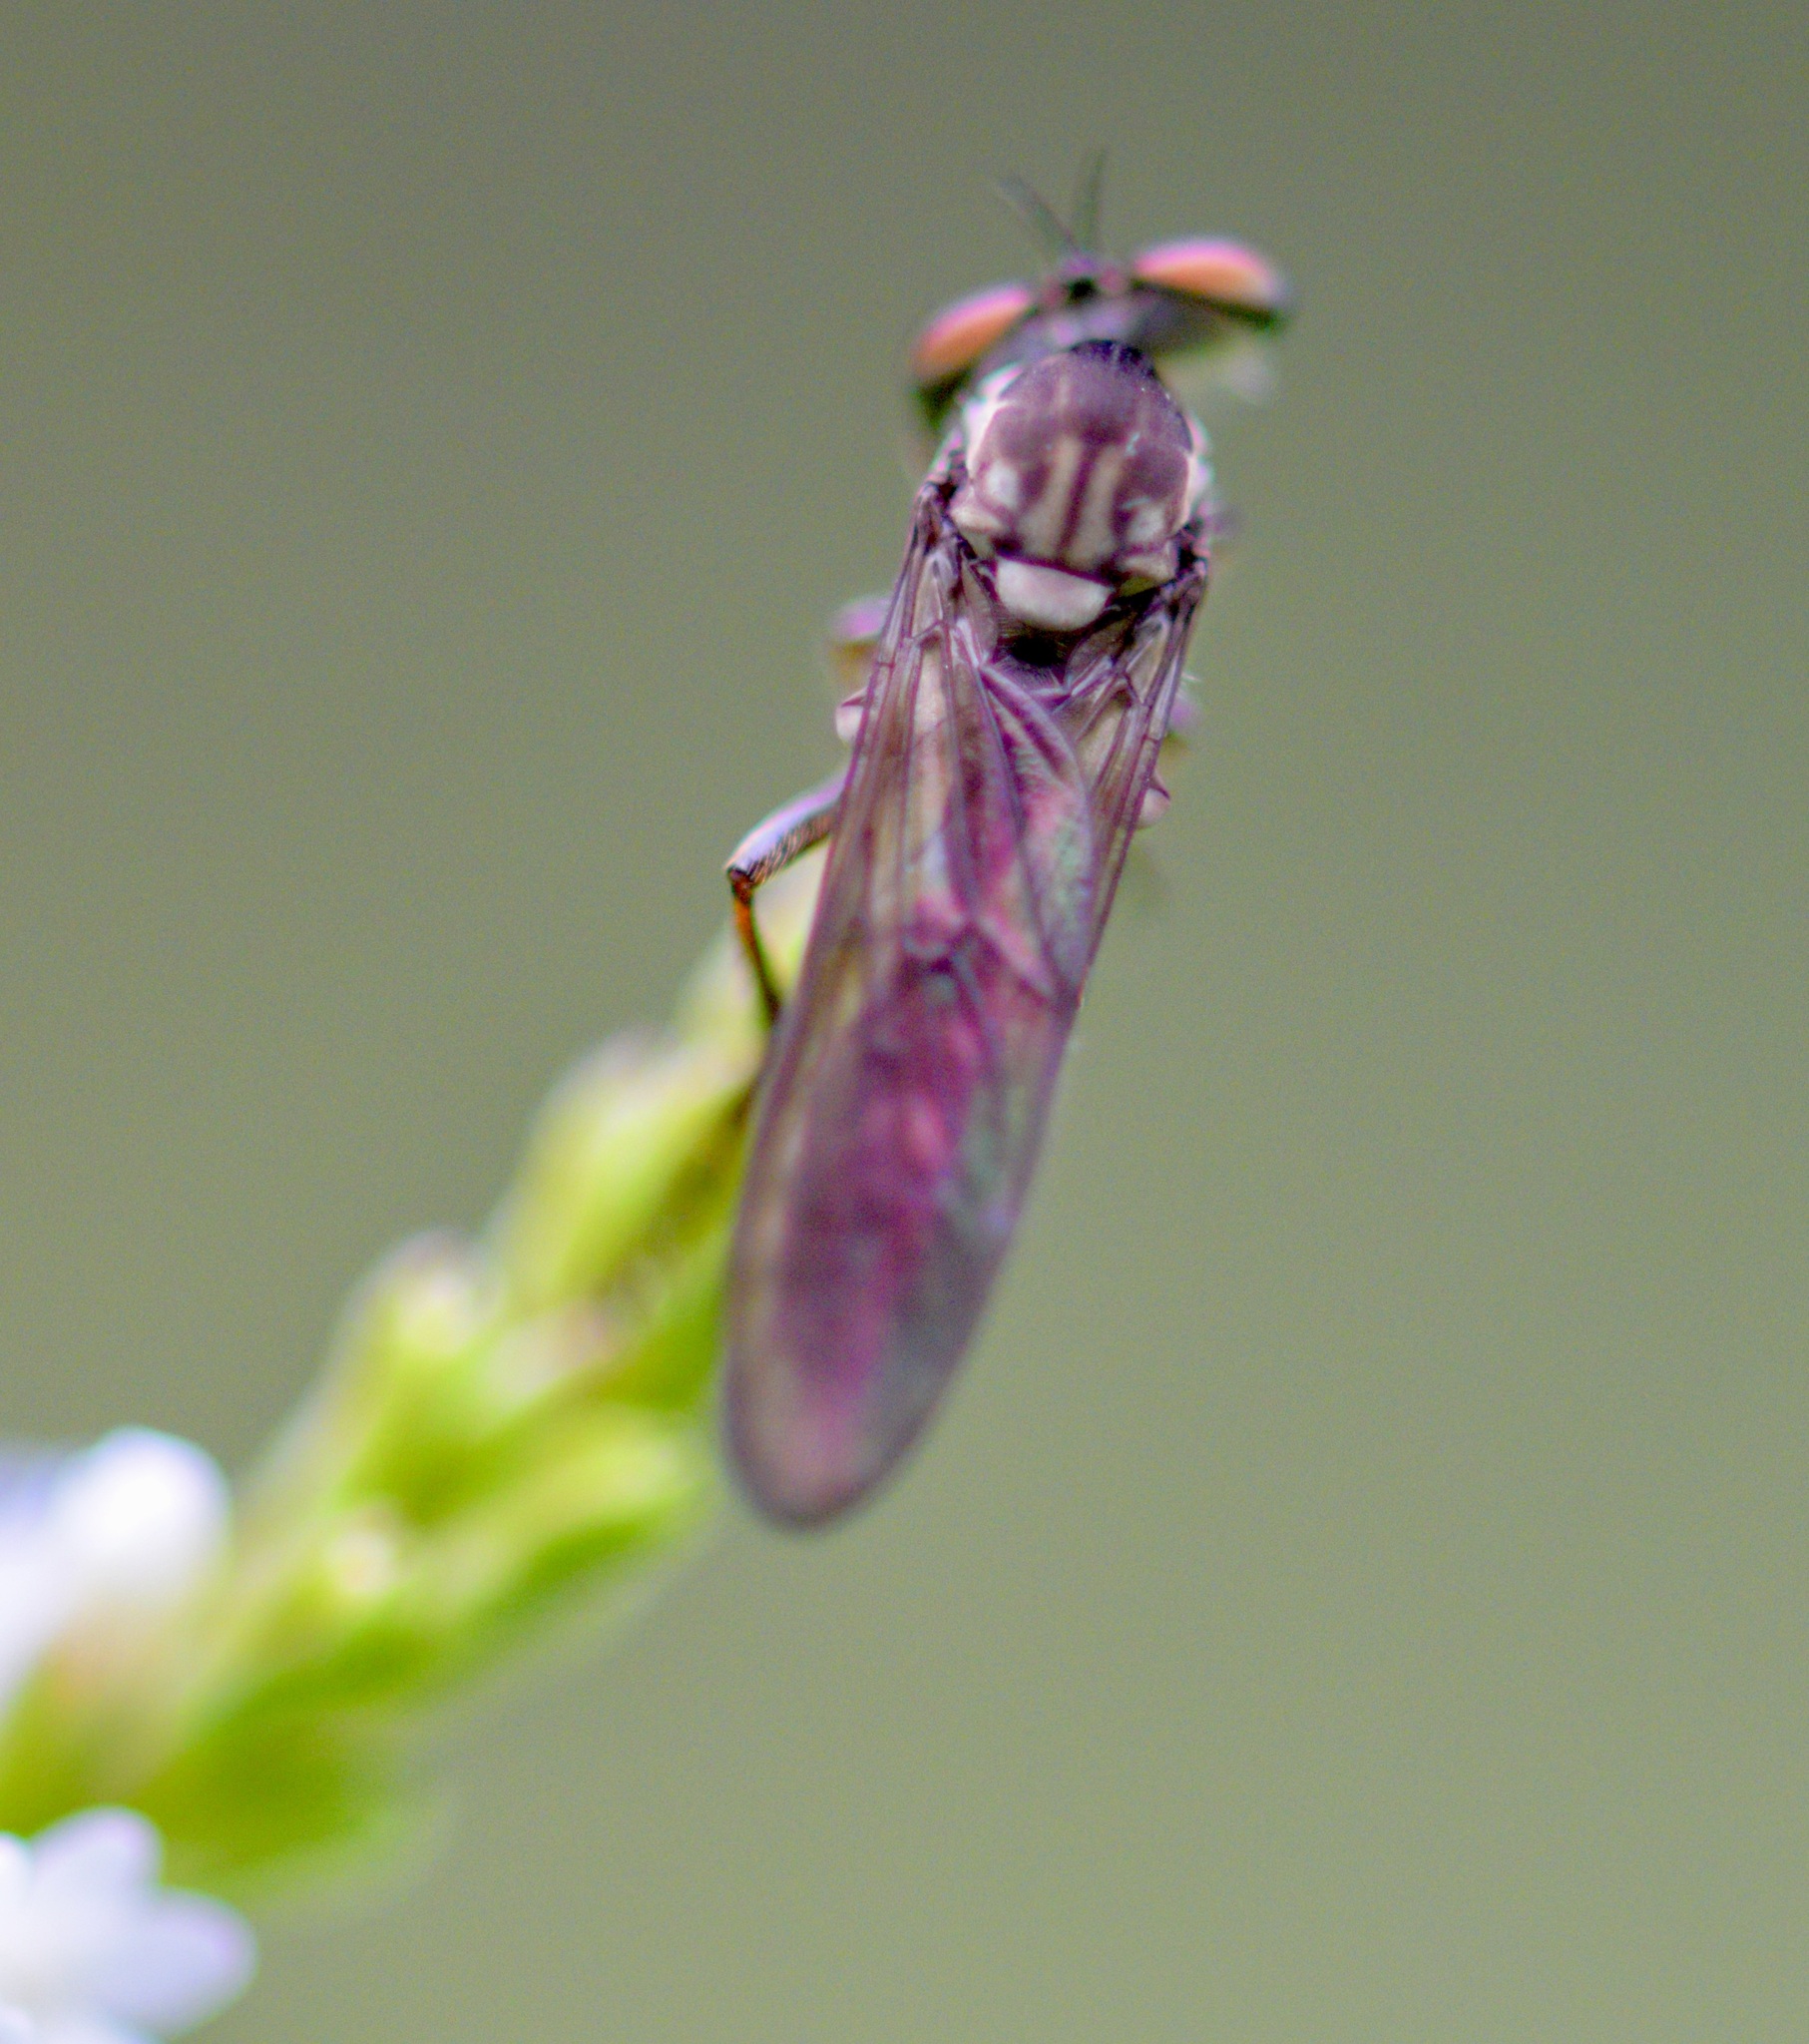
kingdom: Animalia
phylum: Arthropoda
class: Insecta
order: Diptera
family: Asilidae
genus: Holcocephala
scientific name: Holcocephala calva
